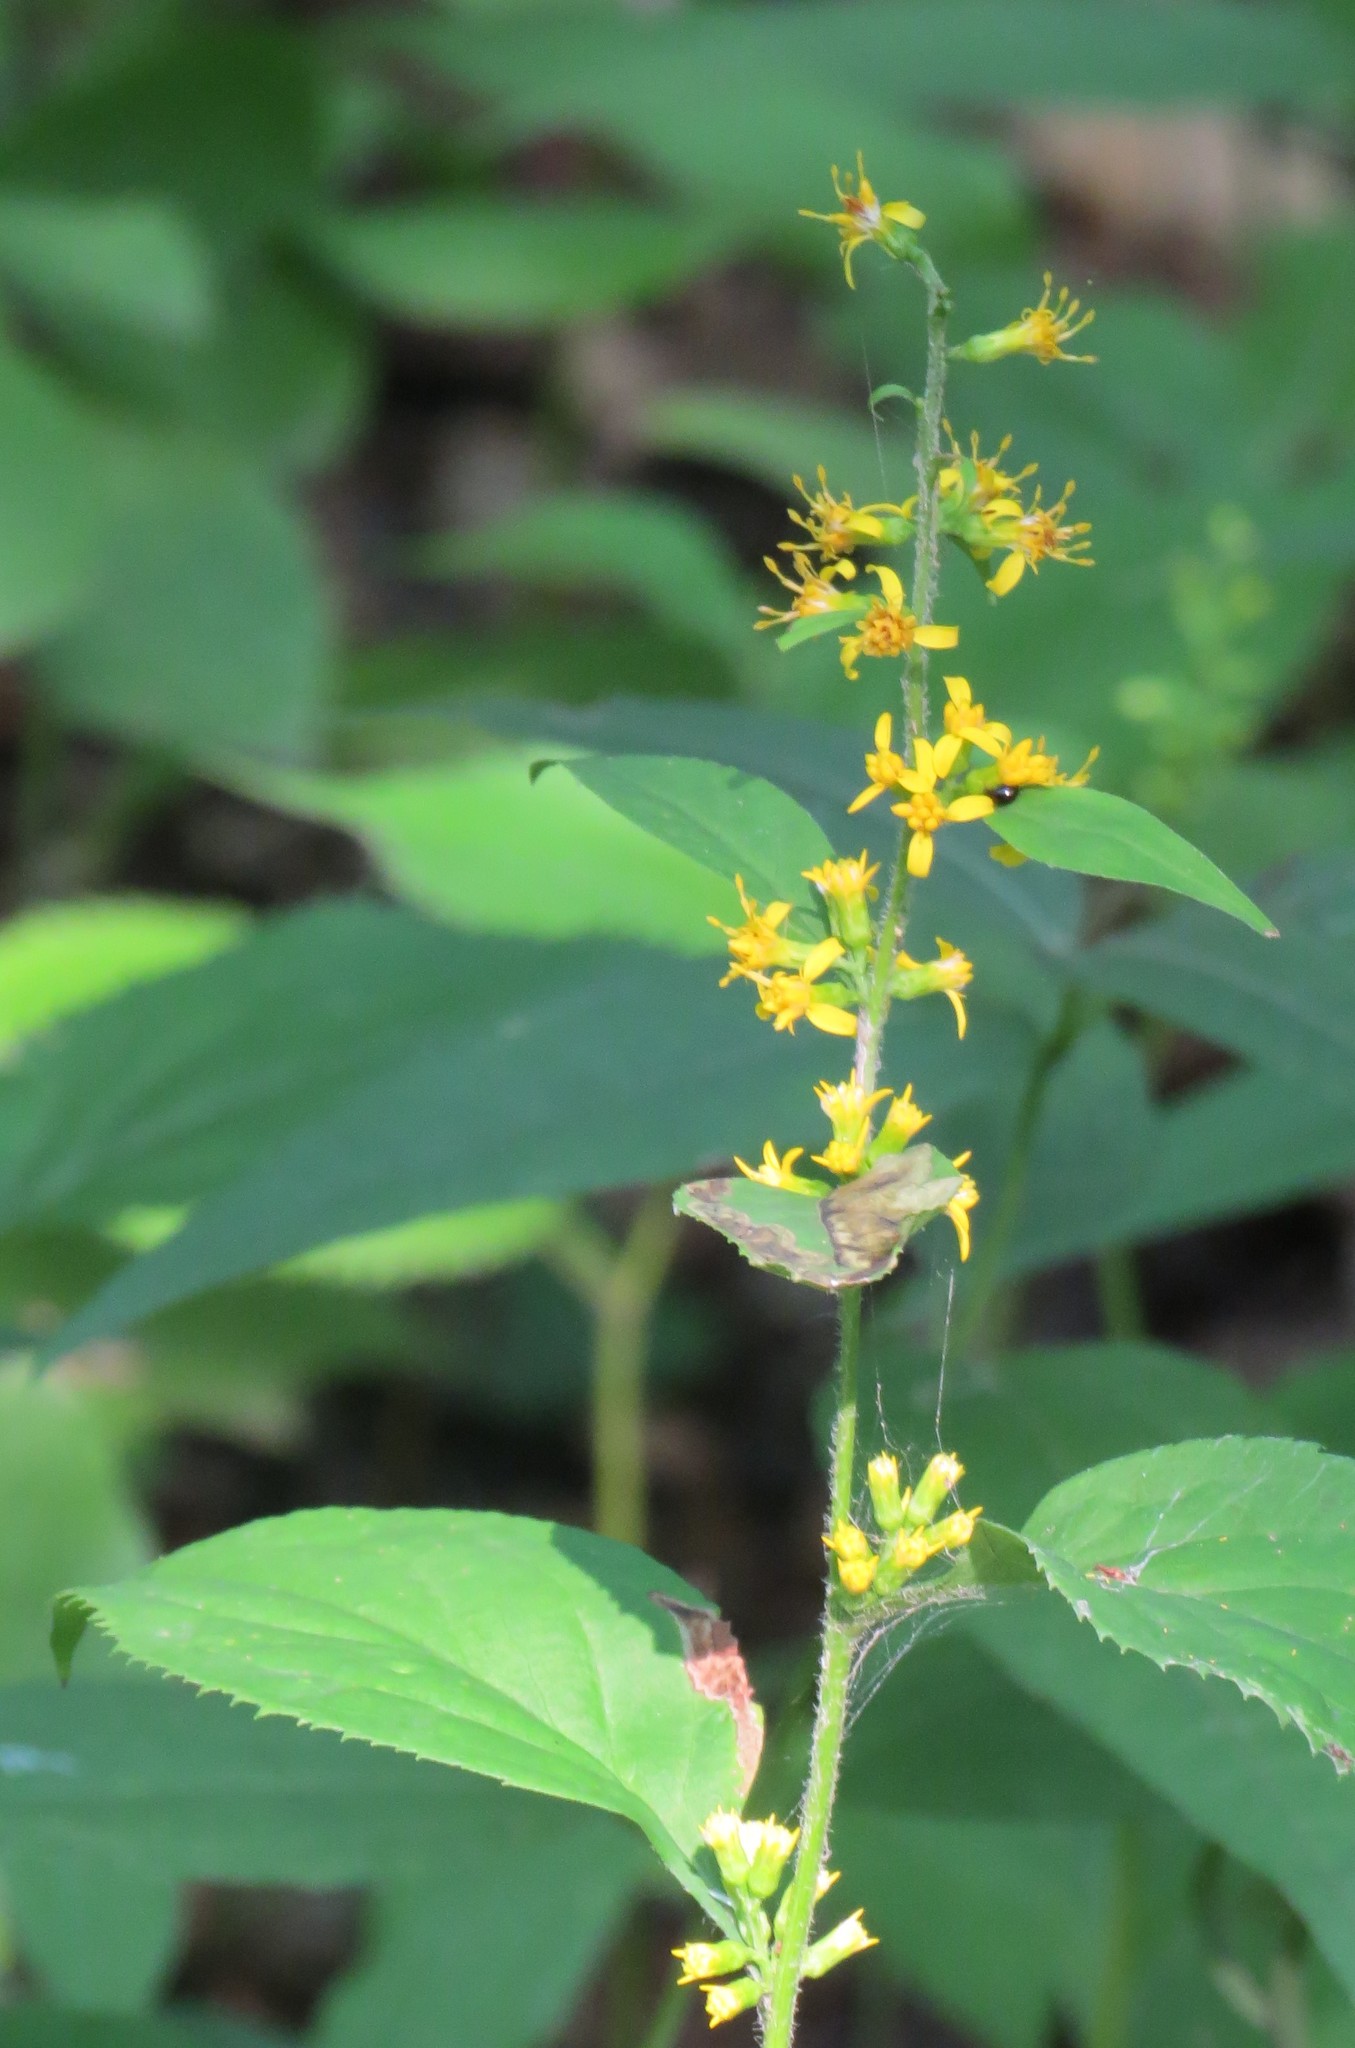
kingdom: Plantae
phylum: Tracheophyta
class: Magnoliopsida
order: Asterales
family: Asteraceae
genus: Solidago
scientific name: Solidago flexicaulis
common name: Zig-zag goldenrod
